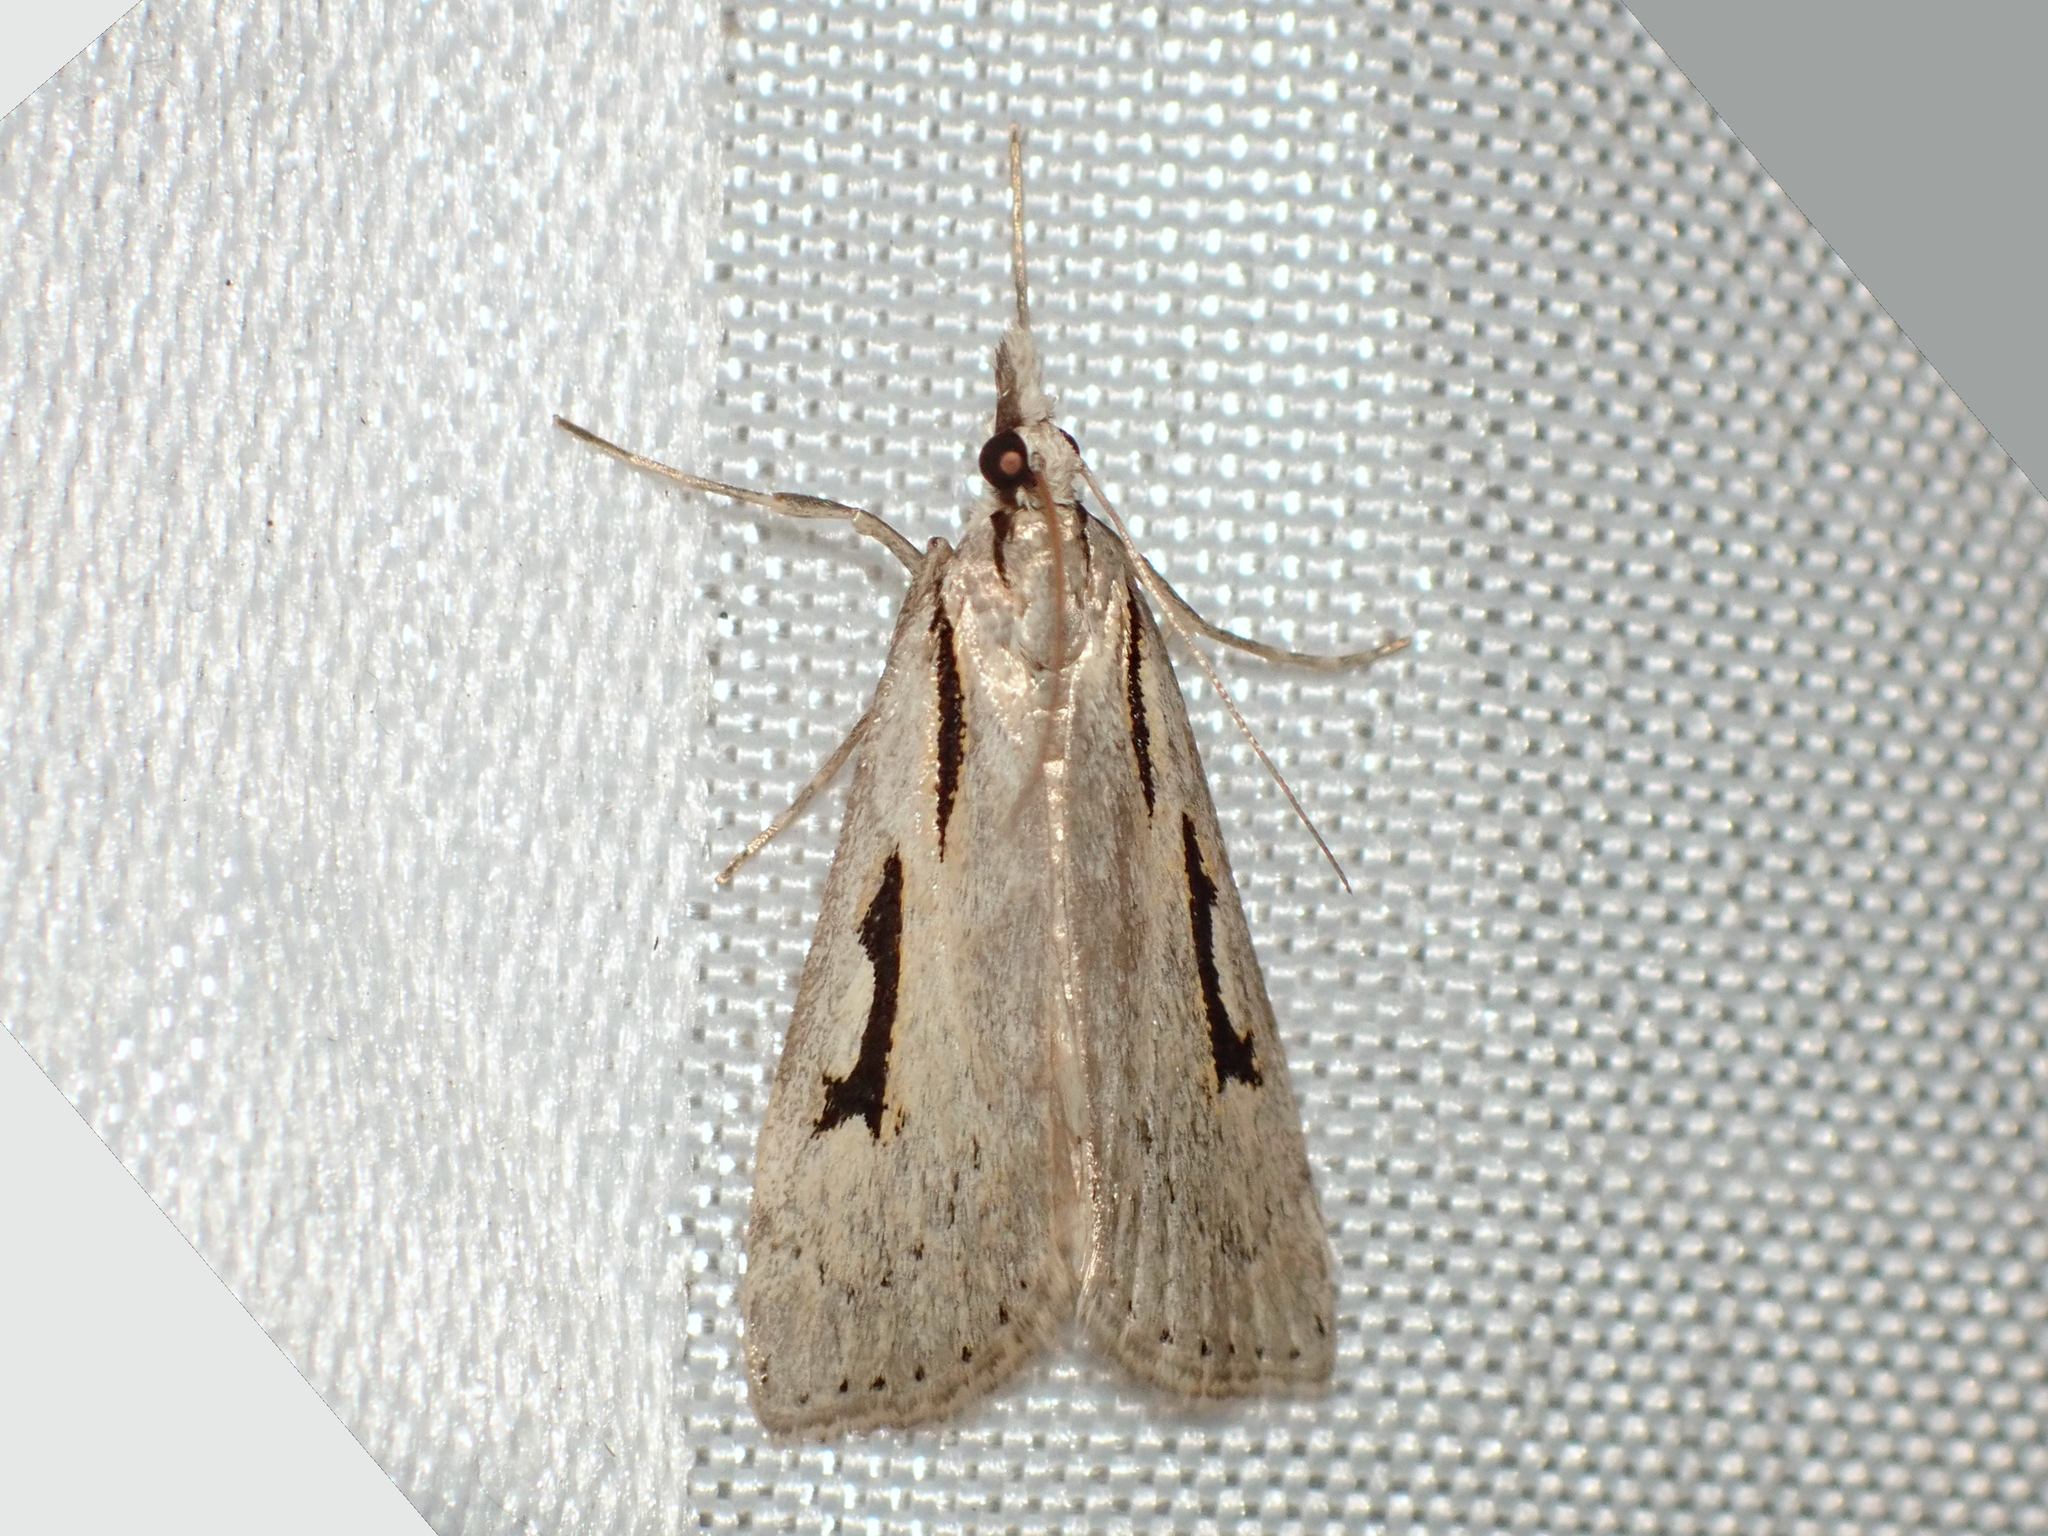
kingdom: Animalia
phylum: Arthropoda
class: Insecta
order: Lepidoptera
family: Crambidae
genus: Scoparia
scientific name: Scoparia rotuellus
